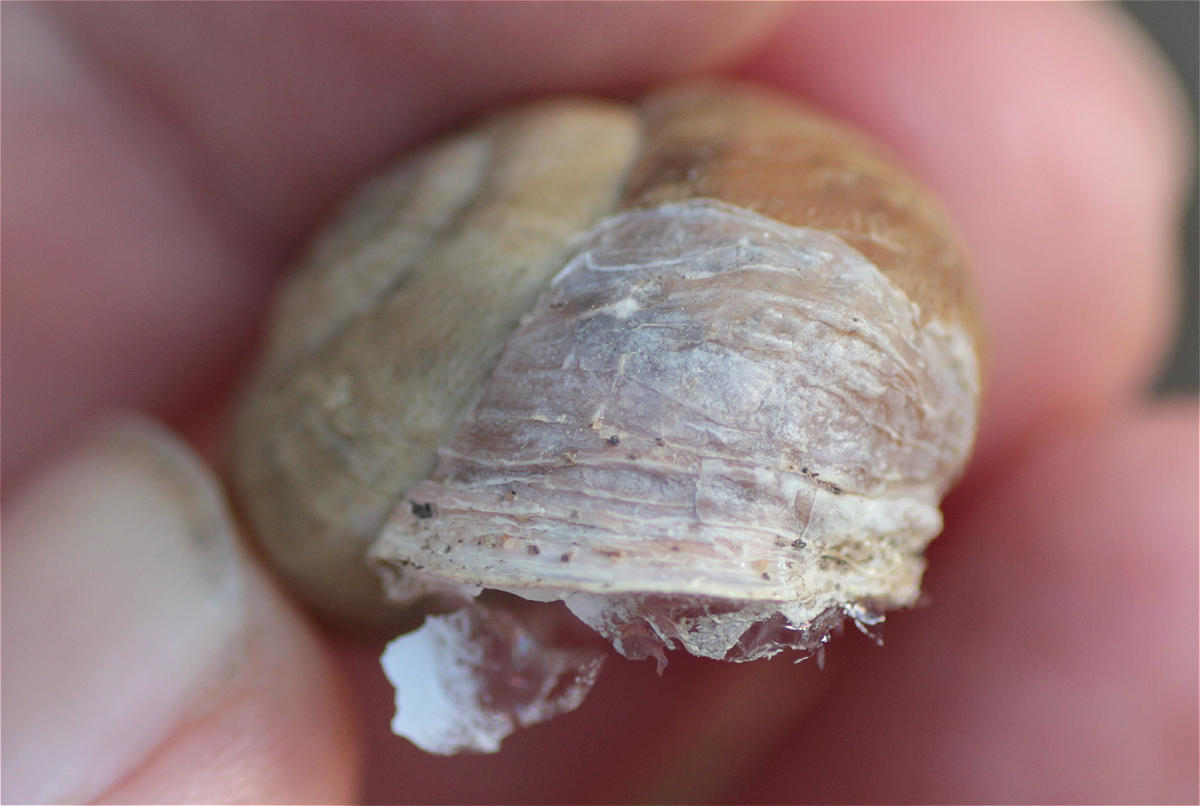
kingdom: Animalia
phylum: Mollusca
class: Gastropoda
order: Stylommatophora
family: Helicidae
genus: Eobania
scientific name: Eobania vermiculata
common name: Chocolateband snail
